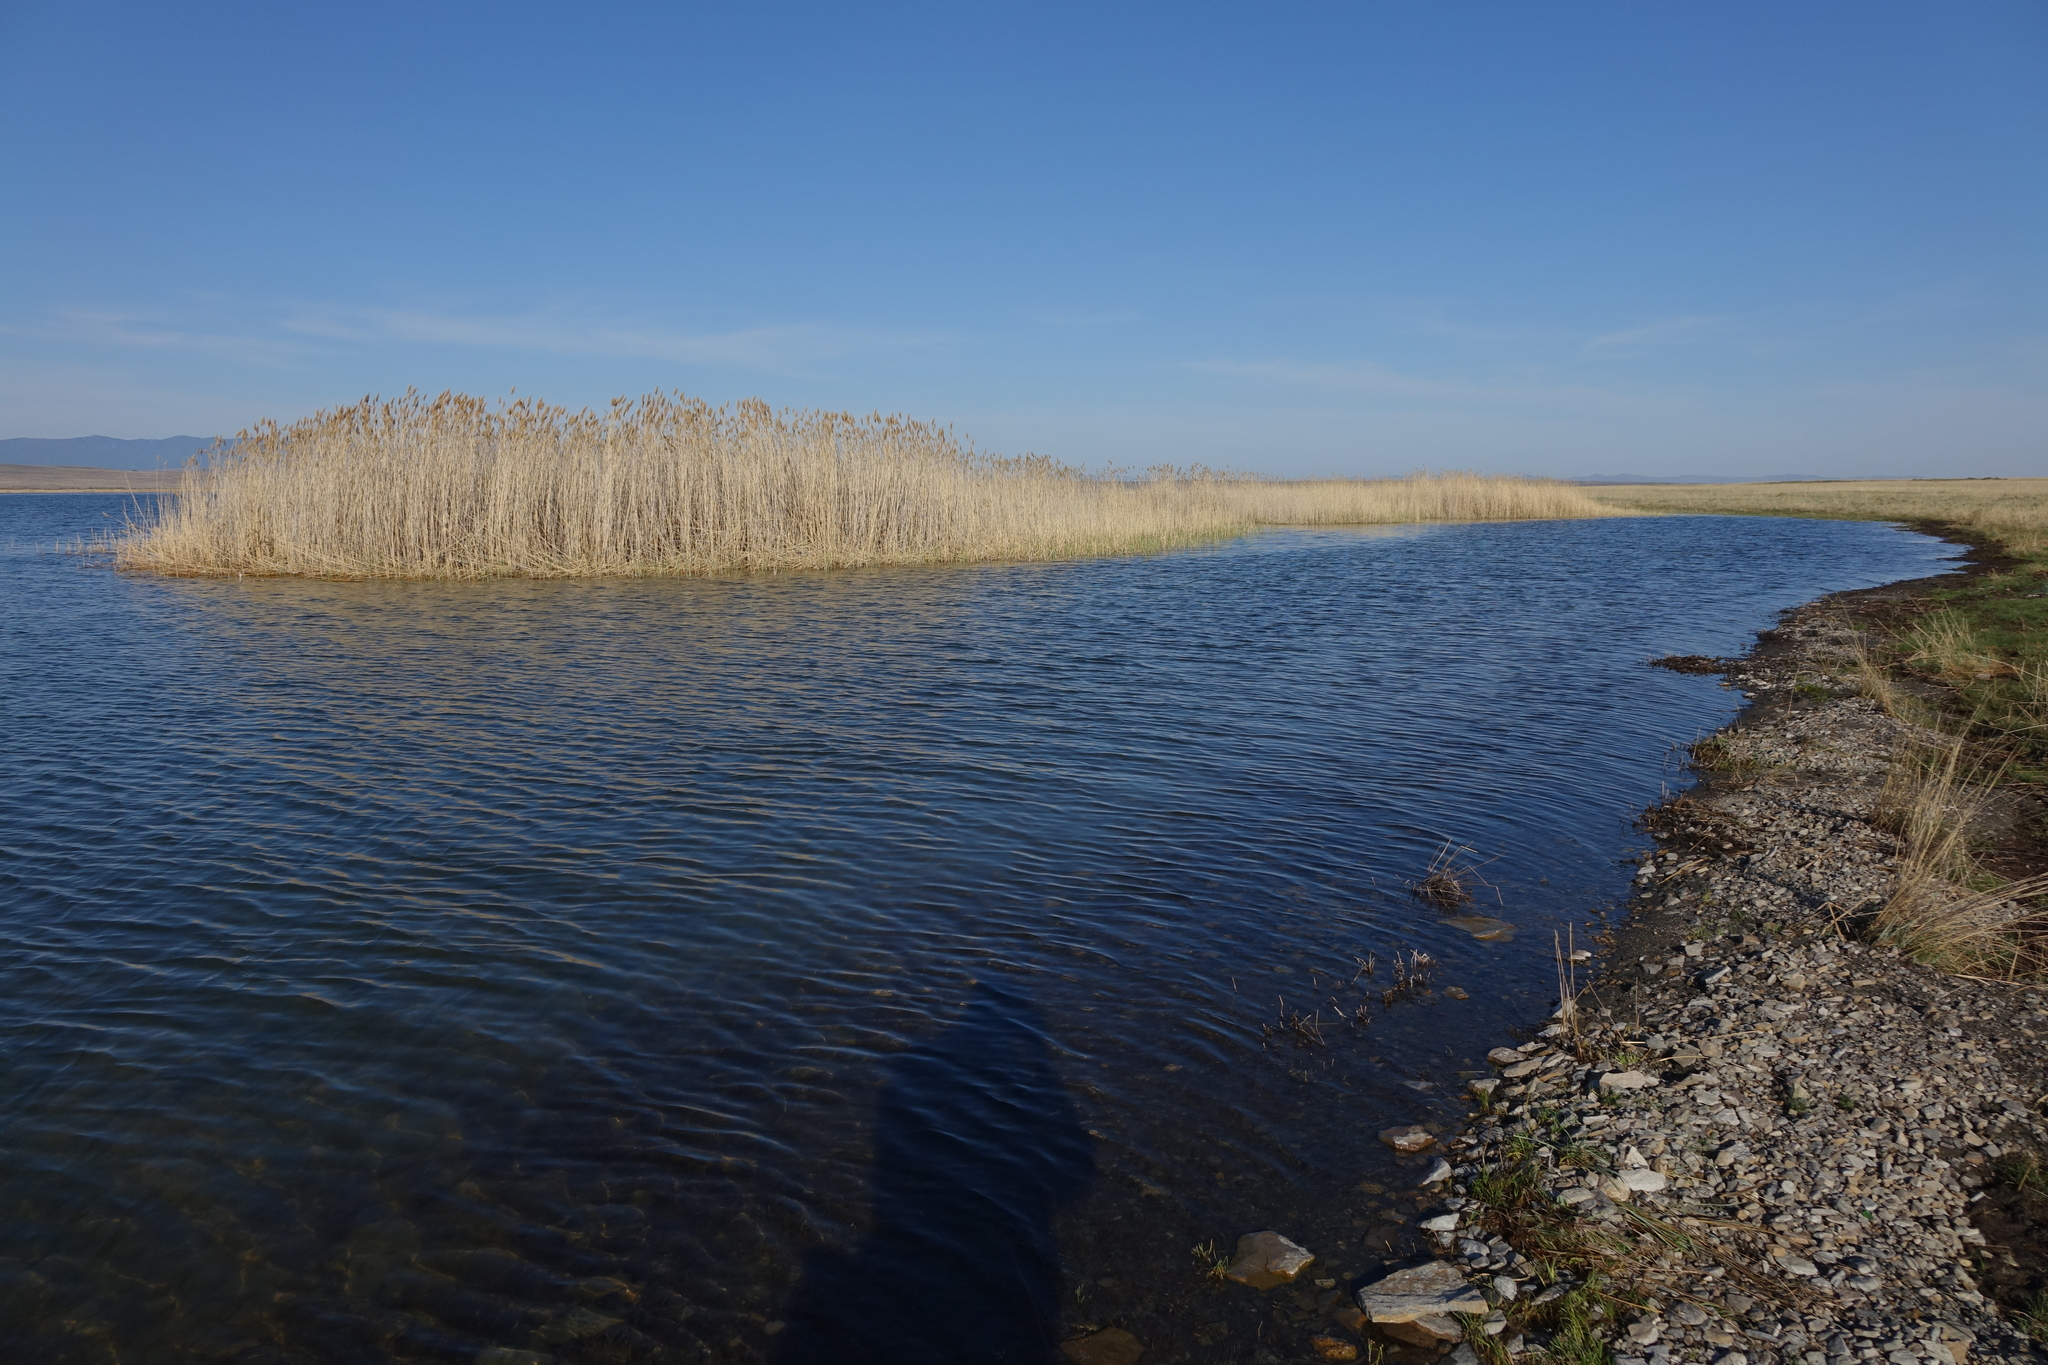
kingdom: Plantae
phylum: Tracheophyta
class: Liliopsida
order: Poales
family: Poaceae
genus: Phragmites
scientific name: Phragmites australis
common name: Common reed
